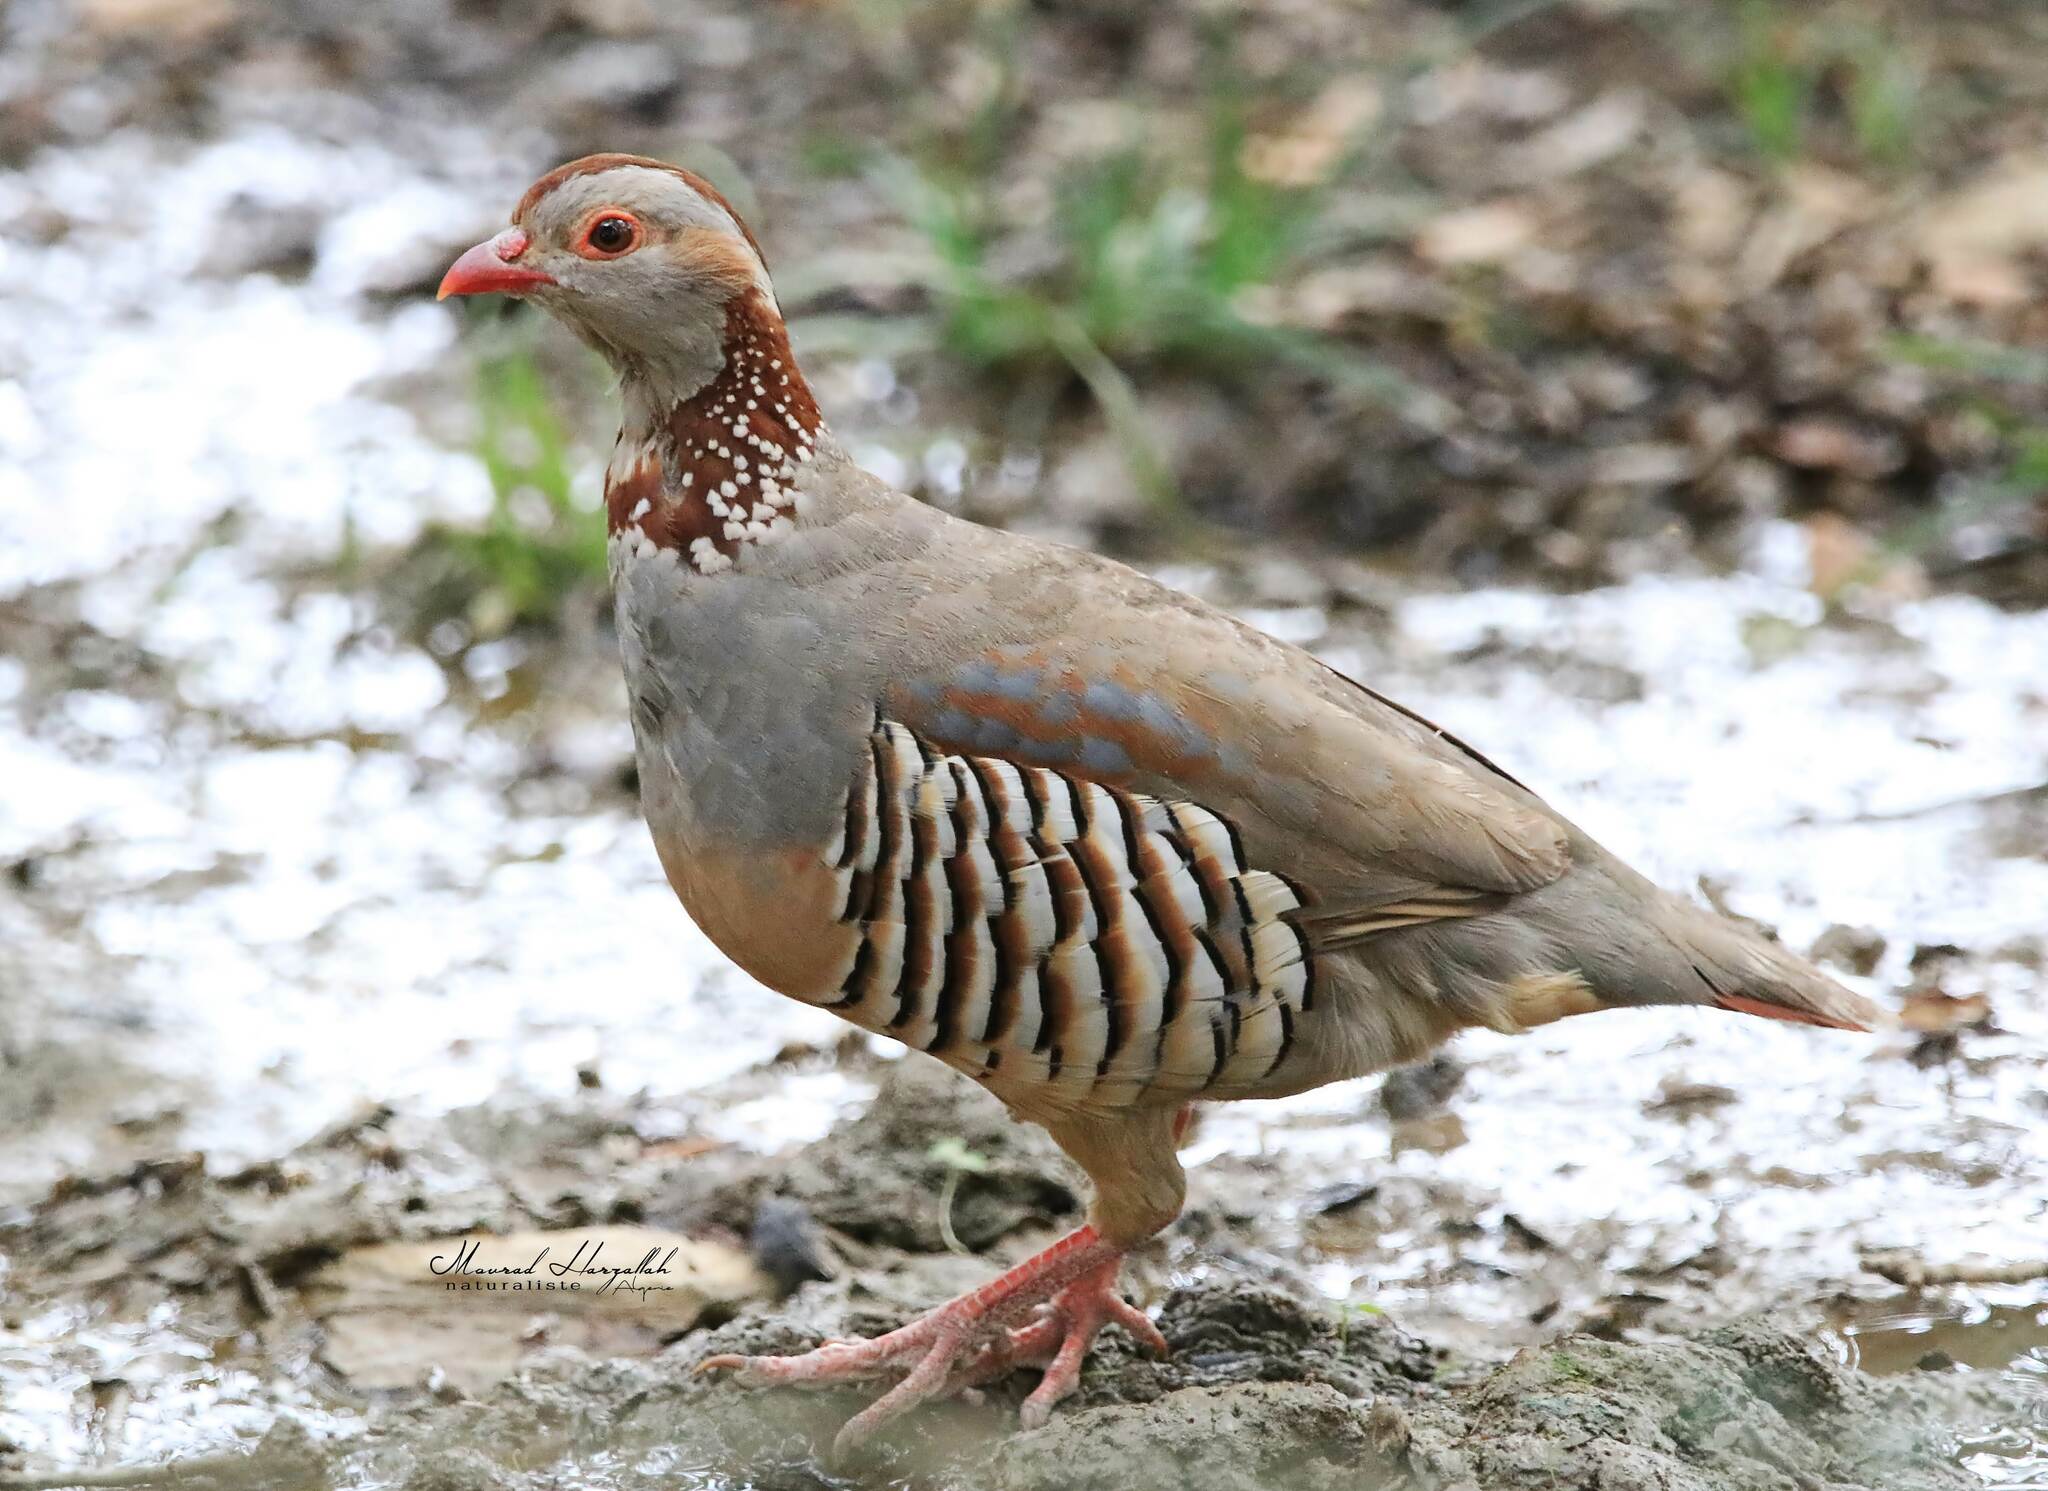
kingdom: Animalia
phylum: Chordata
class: Aves
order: Galliformes
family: Phasianidae
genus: Alectoris
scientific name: Alectoris barbara
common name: Barbary partridge
